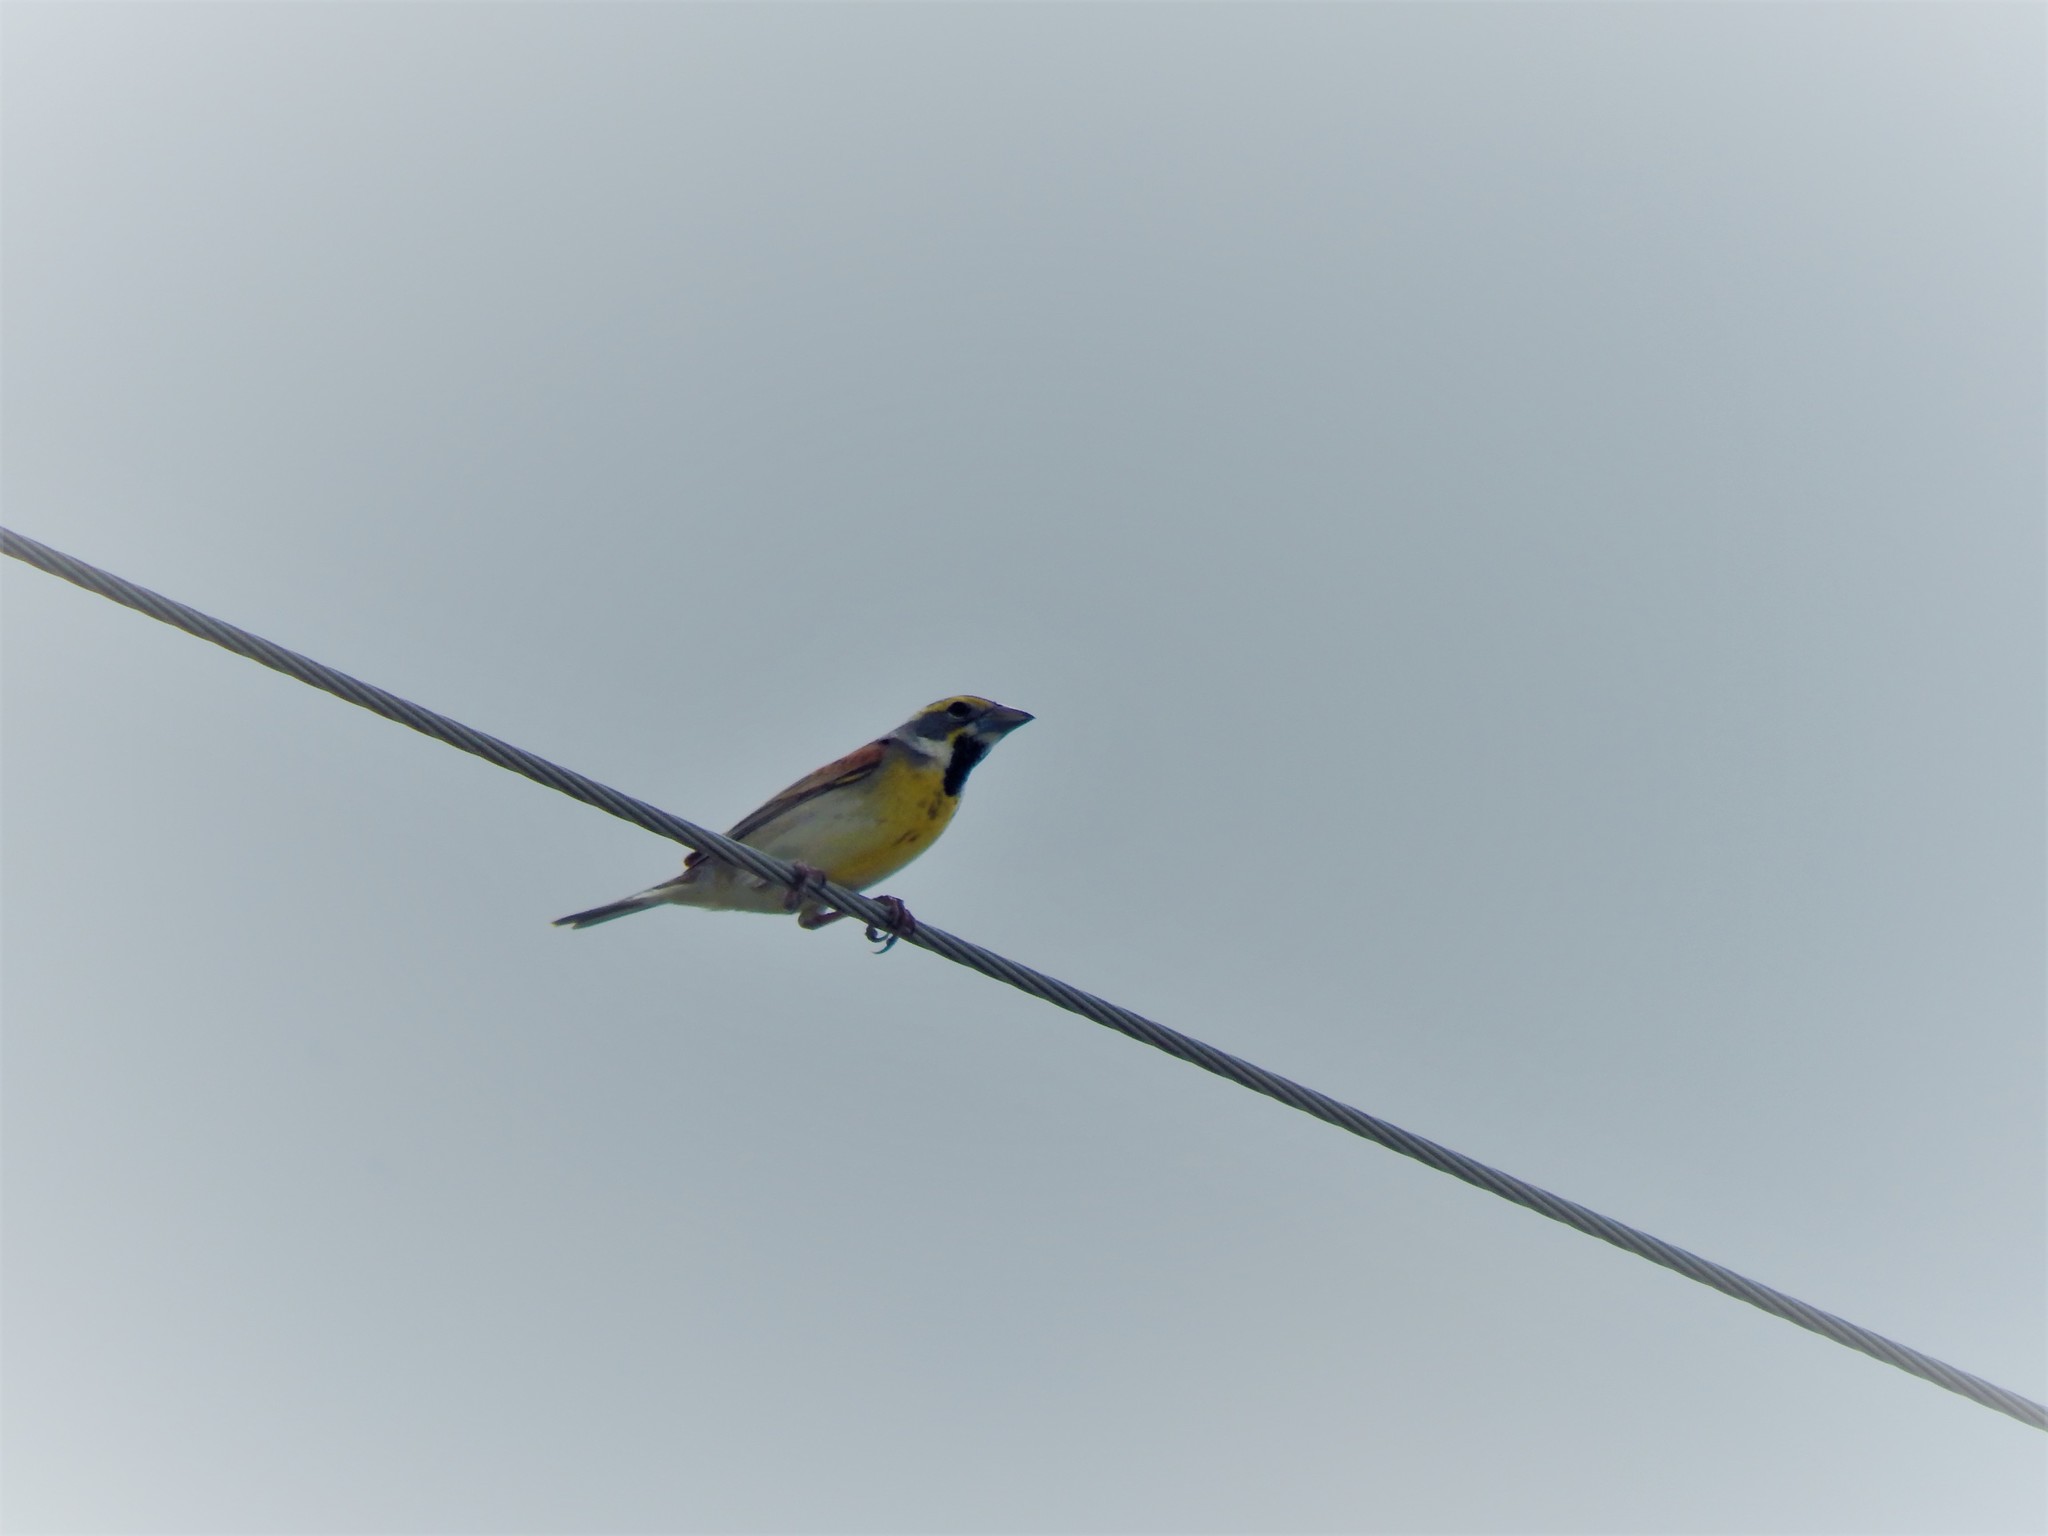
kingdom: Animalia
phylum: Chordata
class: Aves
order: Passeriformes
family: Cardinalidae
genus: Spiza
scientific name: Spiza americana
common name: Dickcissel
